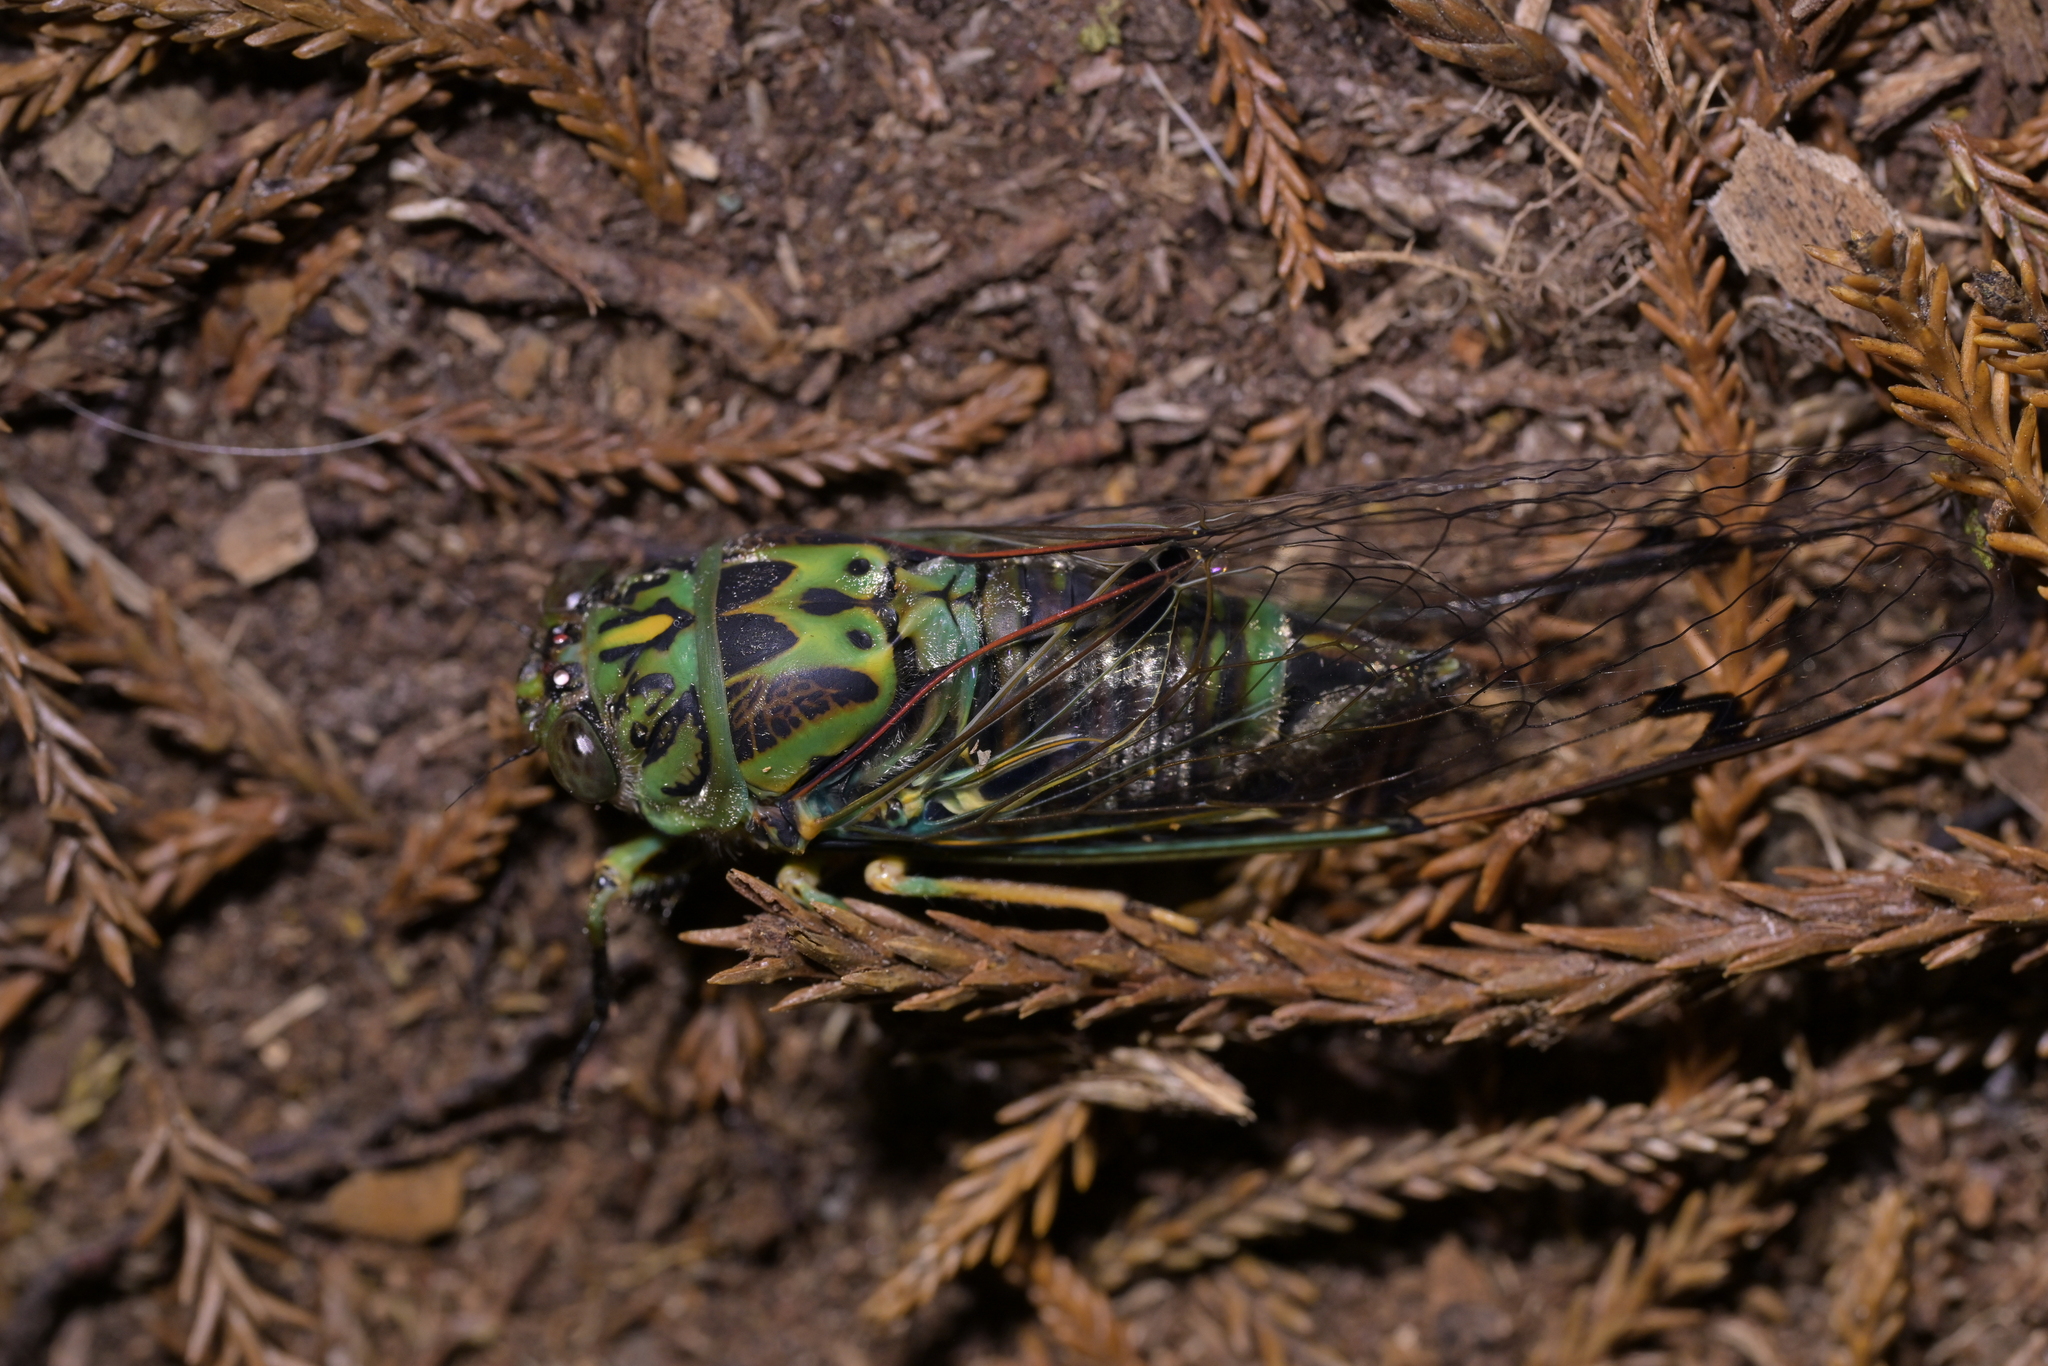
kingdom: Animalia
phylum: Arthropoda
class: Insecta
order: Hemiptera
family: Cicadidae
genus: Amphipsalta
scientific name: Amphipsalta zelandica
